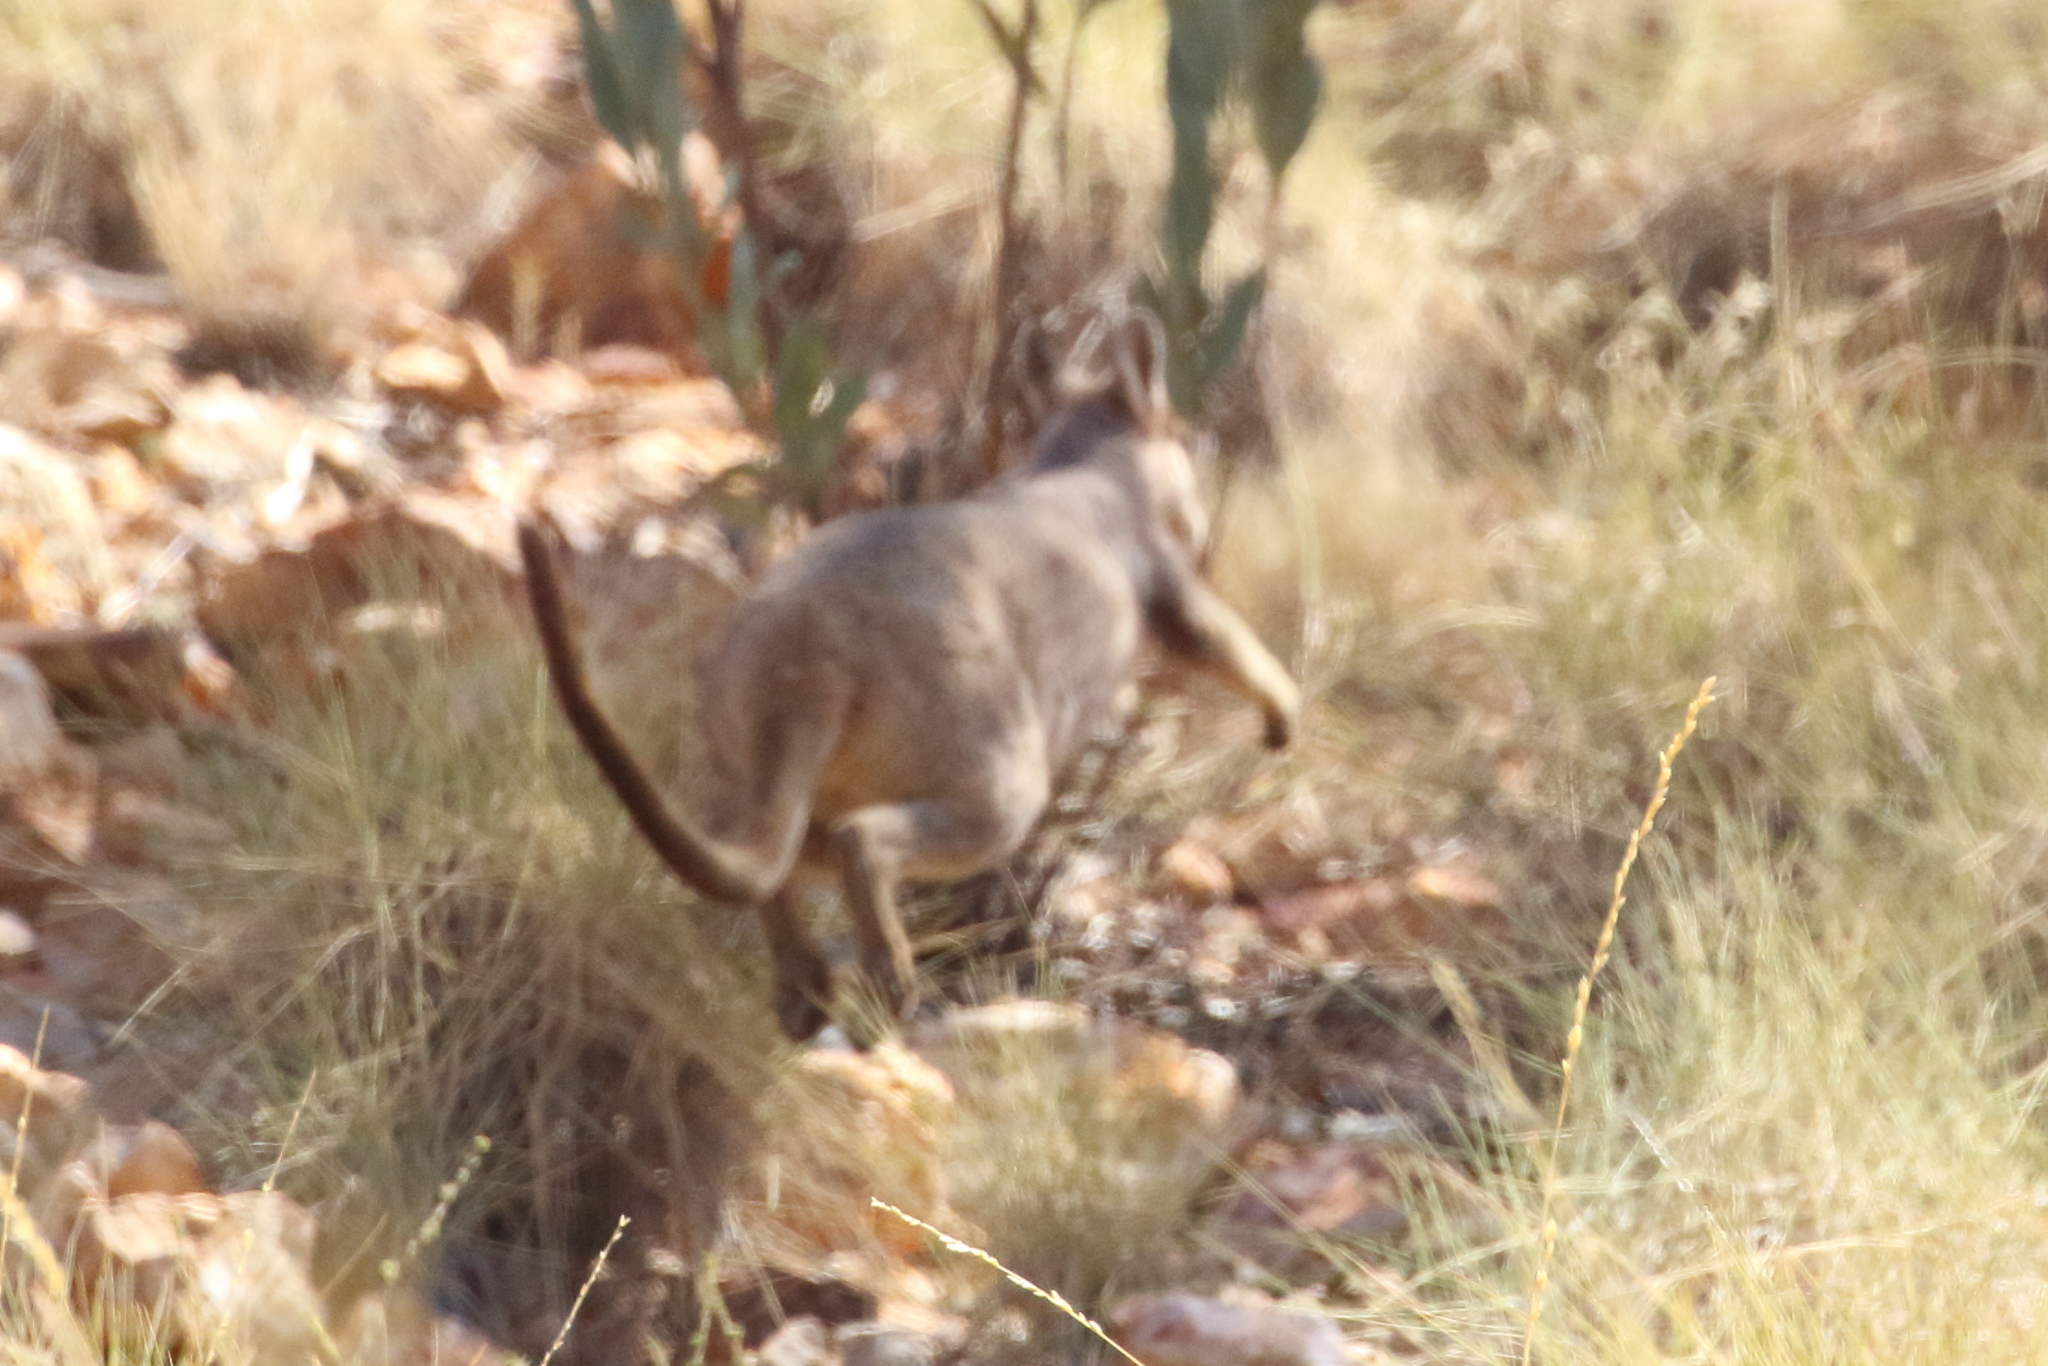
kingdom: Animalia
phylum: Chordata
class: Mammalia
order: Diprotodontia
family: Macropodidae
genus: Petrogale
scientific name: Petrogale purpureicollis
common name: Purple-necked rock-wallaby
